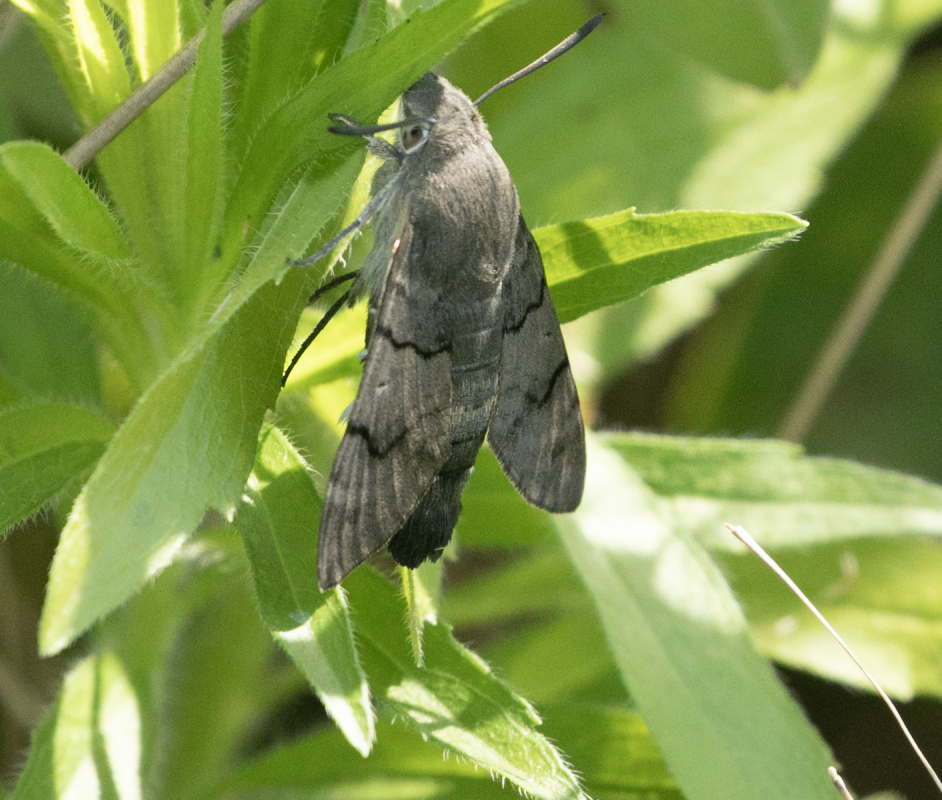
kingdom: Animalia
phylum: Arthropoda
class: Insecta
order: Lepidoptera
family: Sphingidae
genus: Macroglossum
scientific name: Macroglossum stellatarum
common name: Humming-bird hawk-moth
